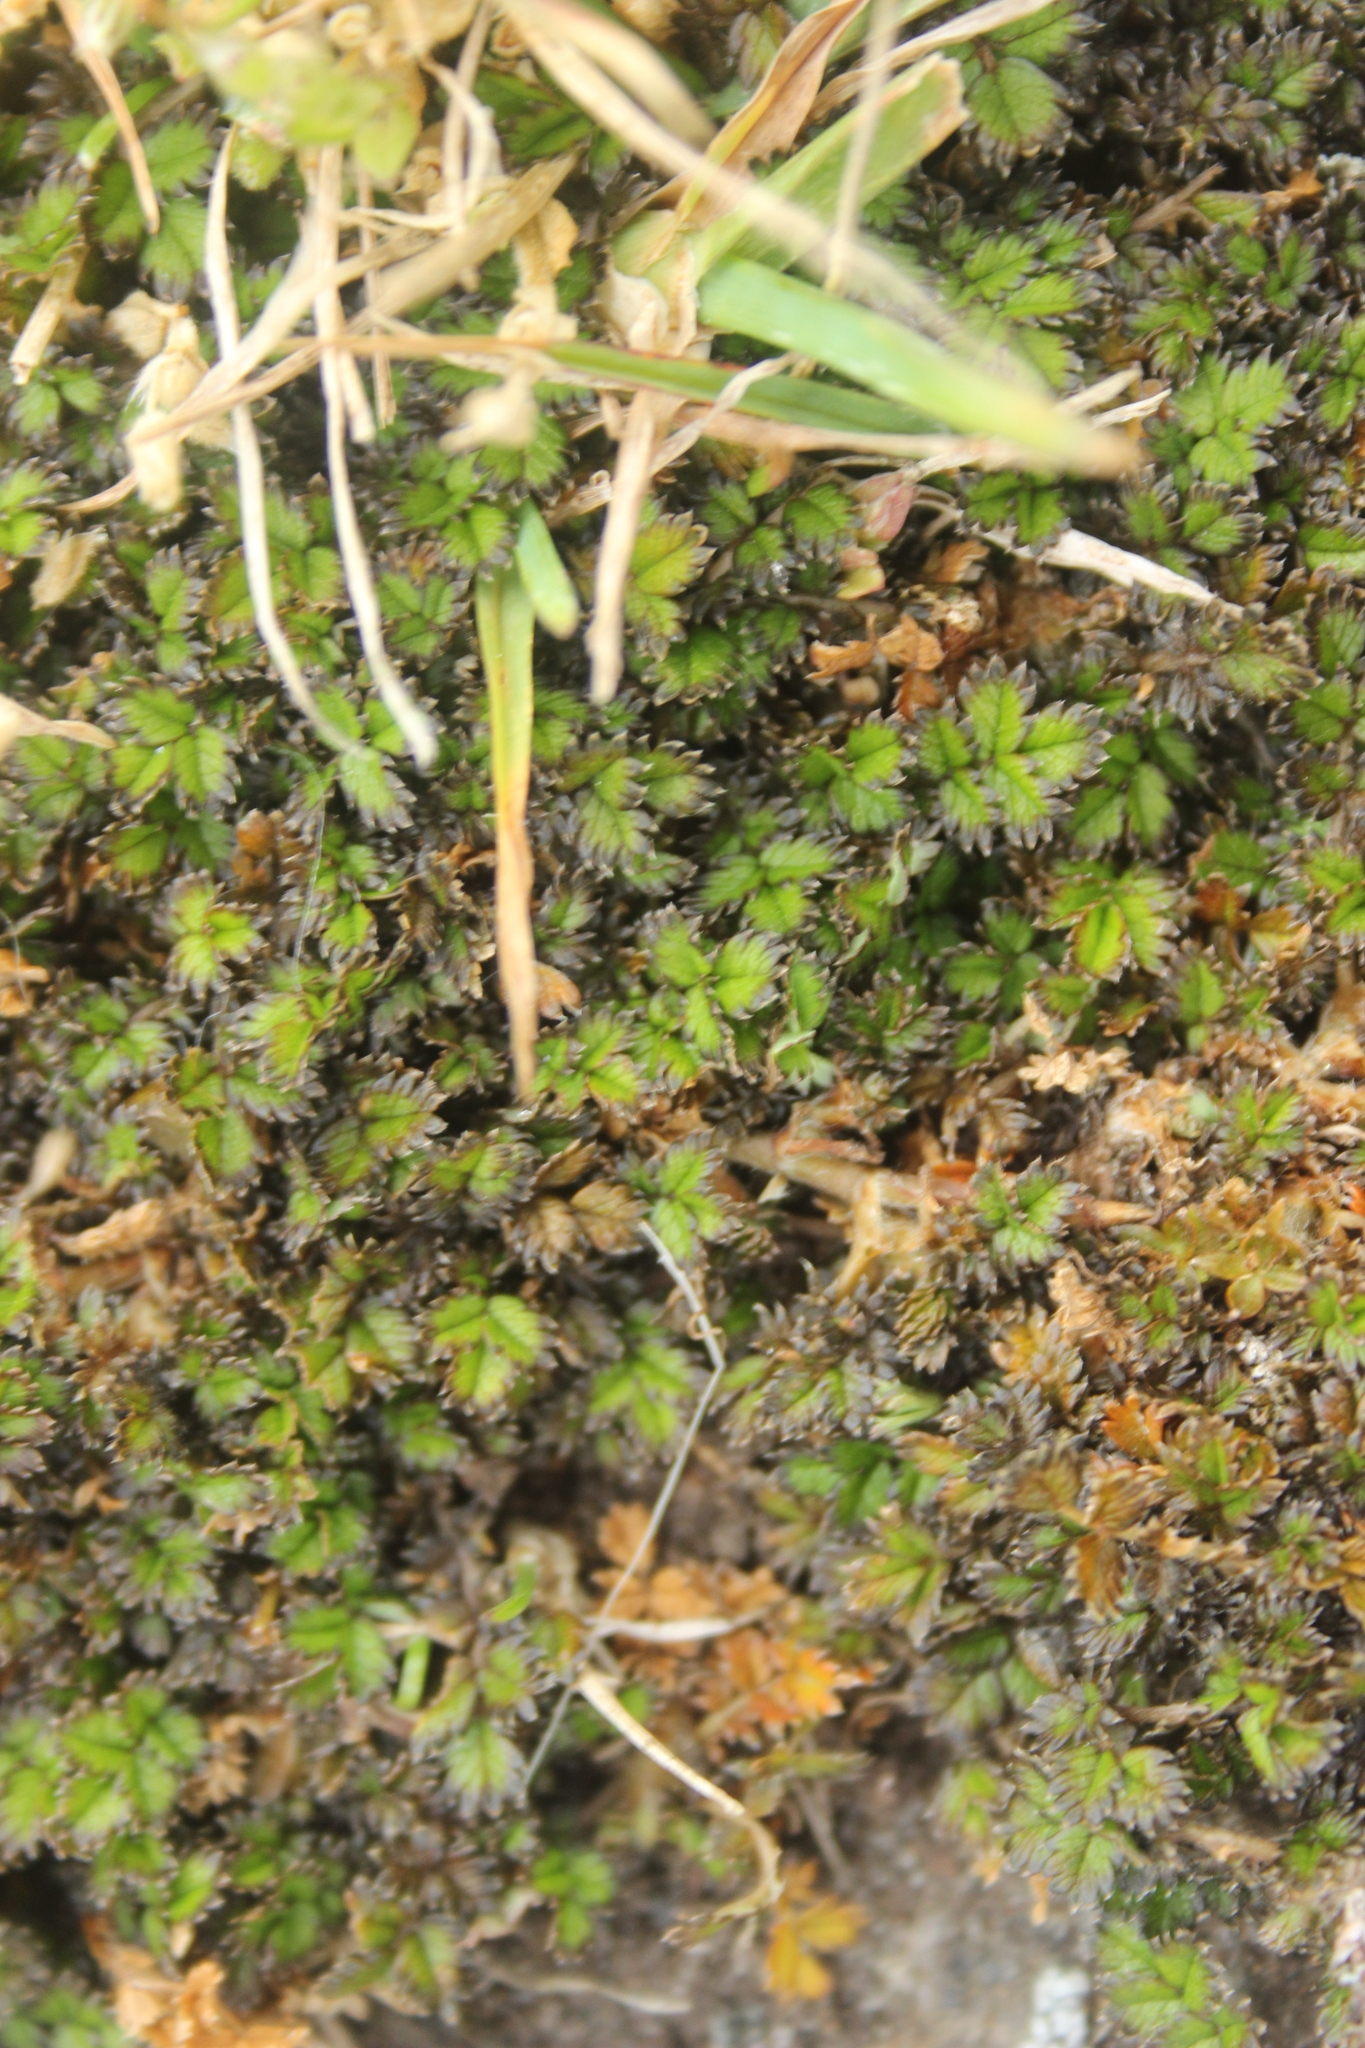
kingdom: Plantae
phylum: Tracheophyta
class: Magnoliopsida
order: Rosales
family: Rosaceae
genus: Acaena
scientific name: Acaena microphylla
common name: New zealand-bur
